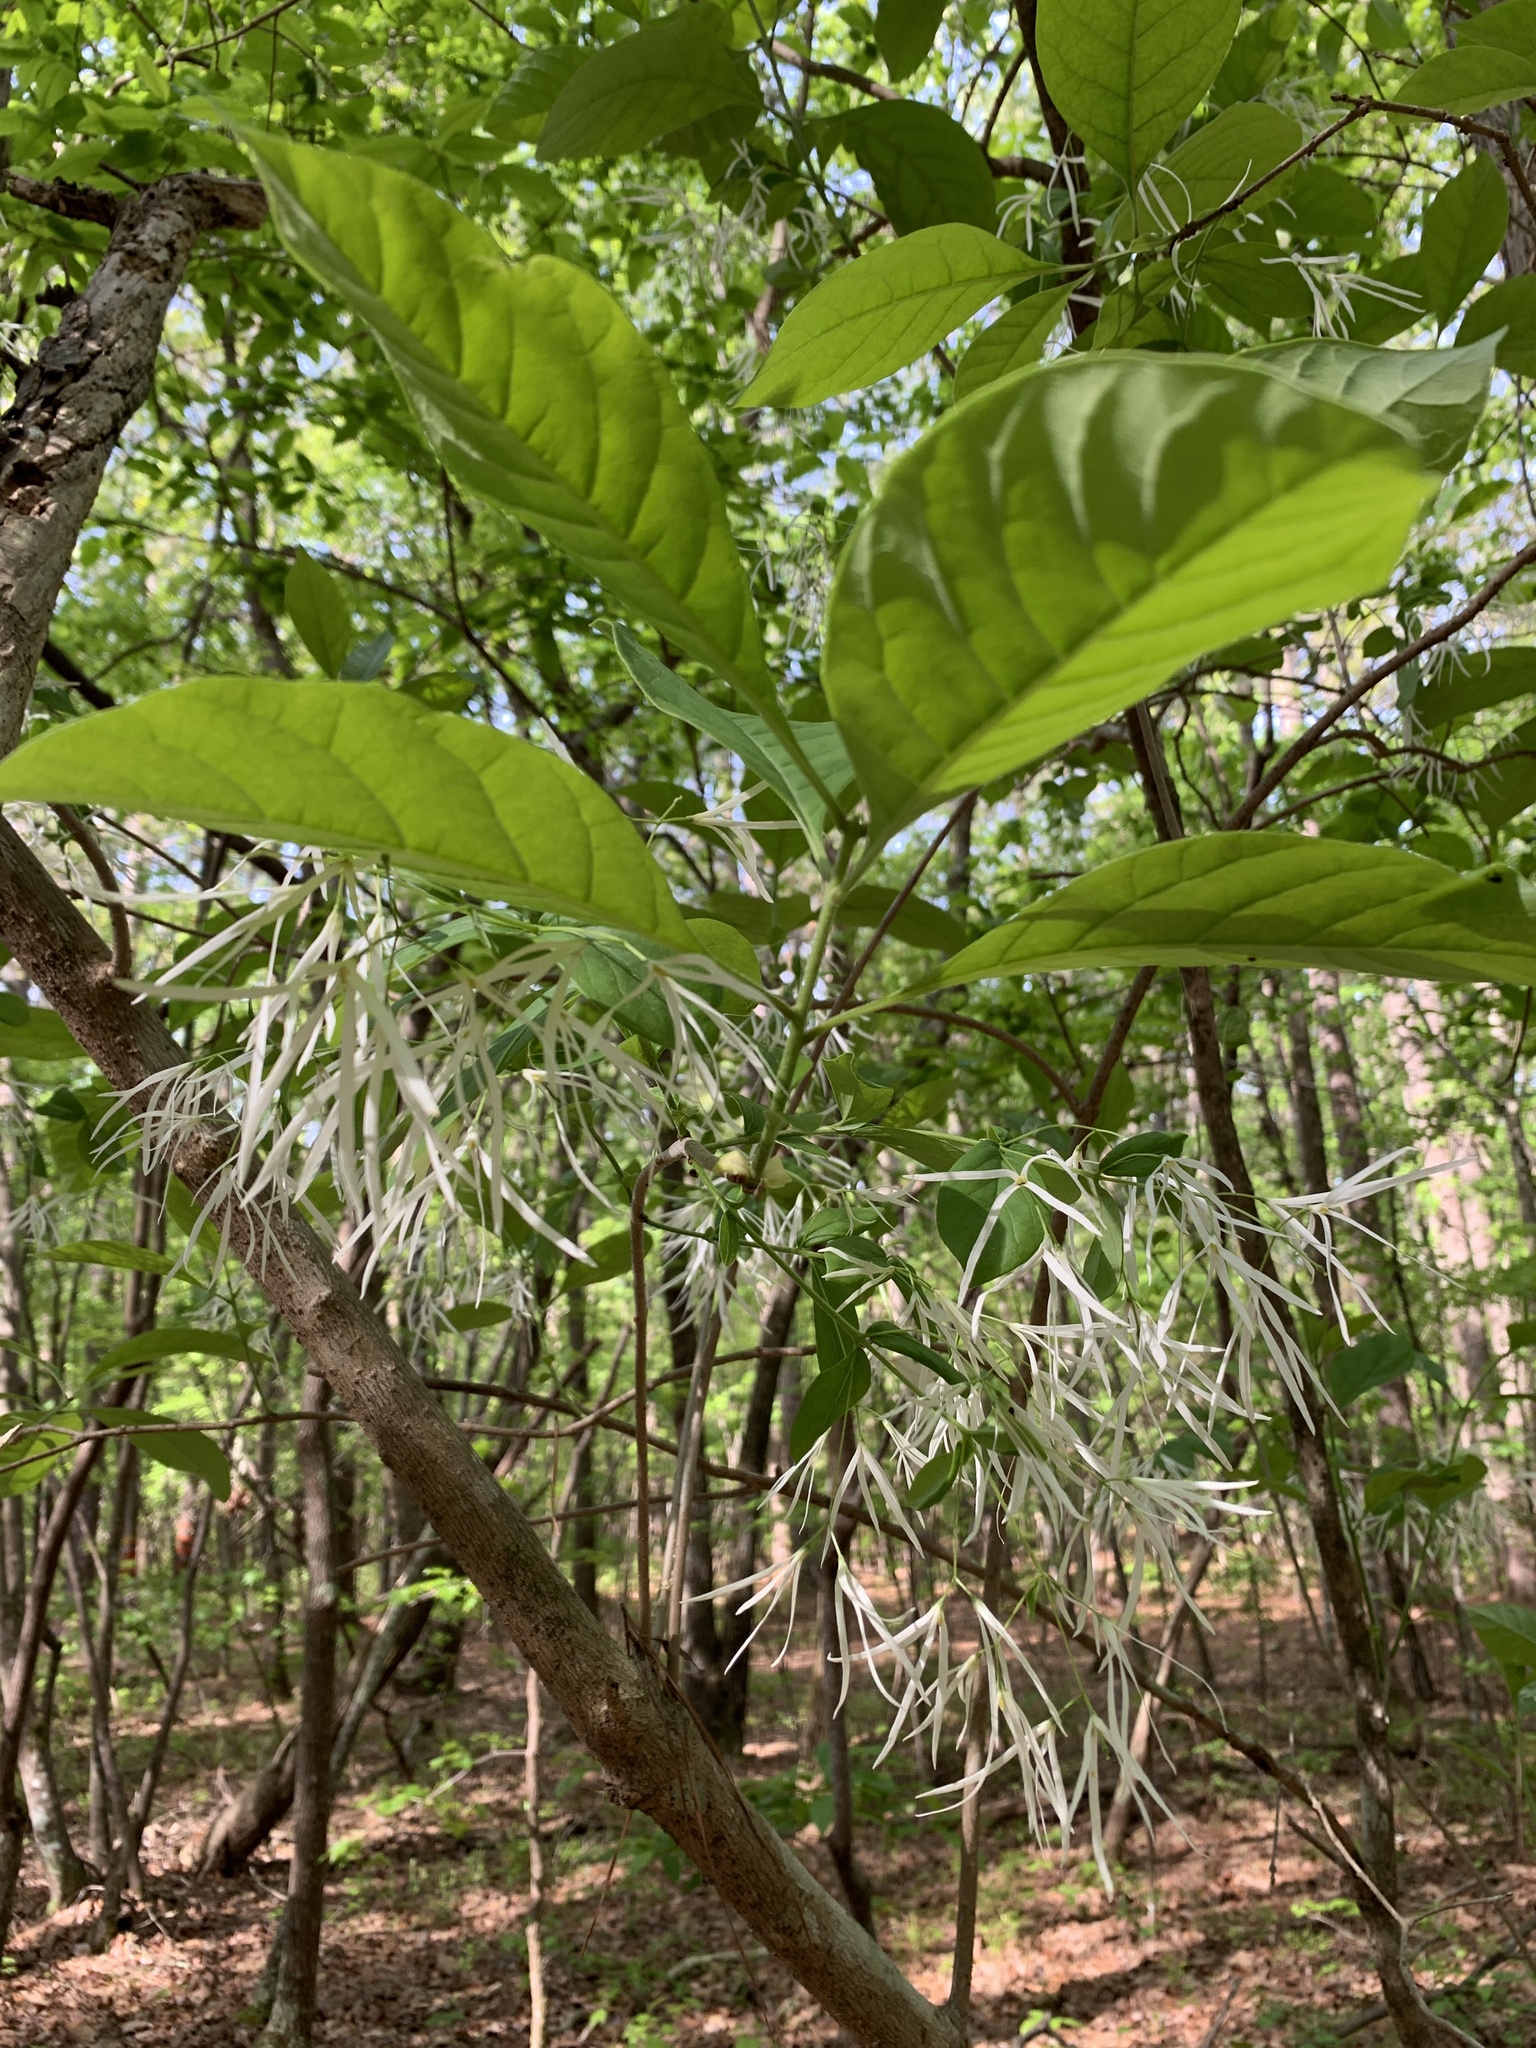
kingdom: Plantae
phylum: Tracheophyta
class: Magnoliopsida
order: Lamiales
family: Oleaceae
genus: Chionanthus
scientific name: Chionanthus virginicus
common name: American fringetree
